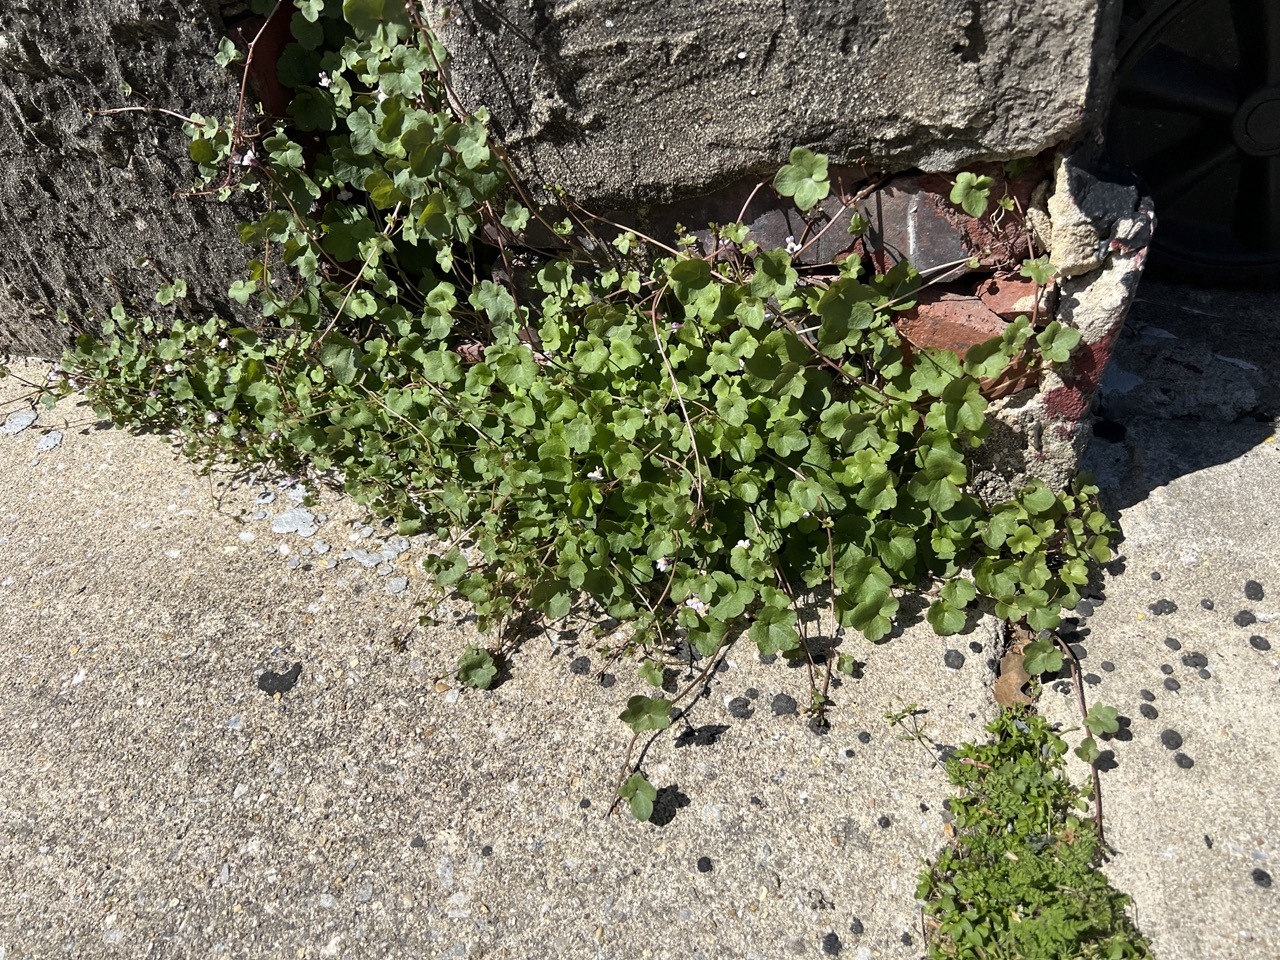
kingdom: Plantae
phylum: Tracheophyta
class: Magnoliopsida
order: Lamiales
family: Plantaginaceae
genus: Cymbalaria
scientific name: Cymbalaria muralis
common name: Ivy-leaved toadflax
